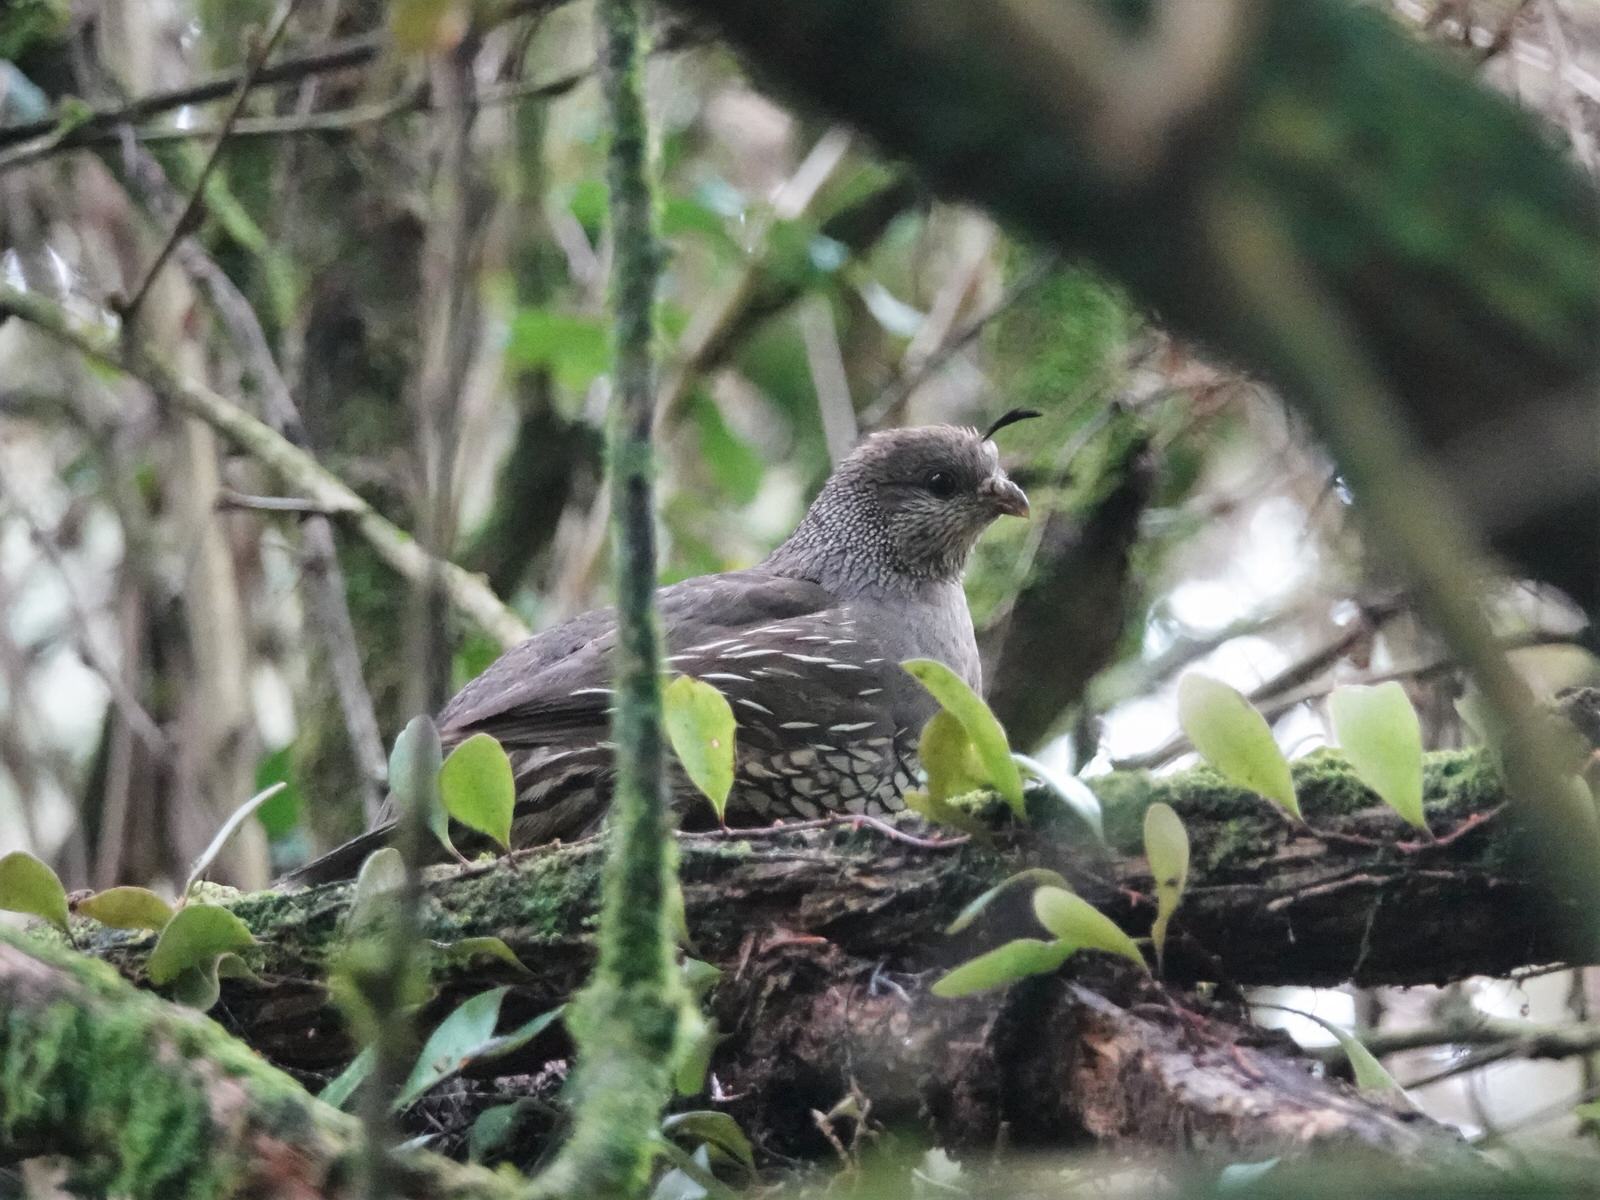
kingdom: Animalia
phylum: Chordata
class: Aves
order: Galliformes
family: Odontophoridae
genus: Callipepla
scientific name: Callipepla californica
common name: California quail
